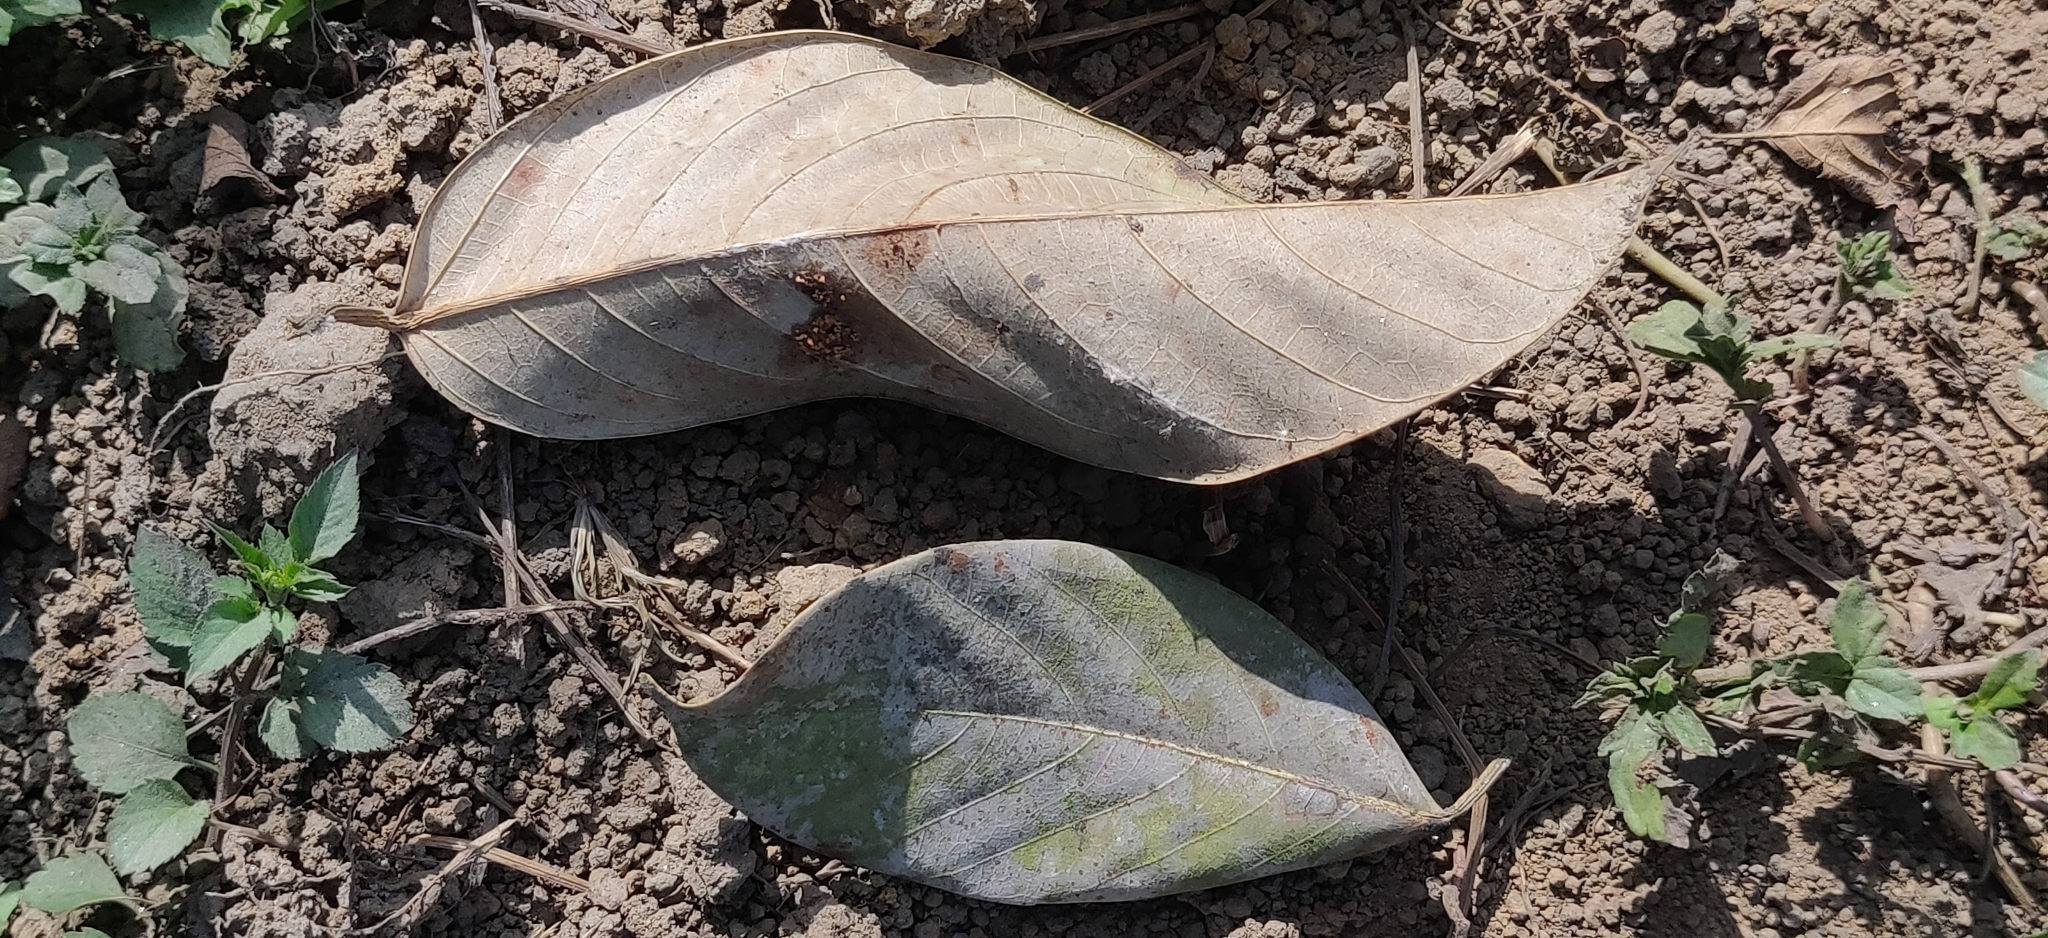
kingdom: Plantae
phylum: Tracheophyta
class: Magnoliopsida
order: Rosales
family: Moraceae
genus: Ficus
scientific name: Ficus callosa
